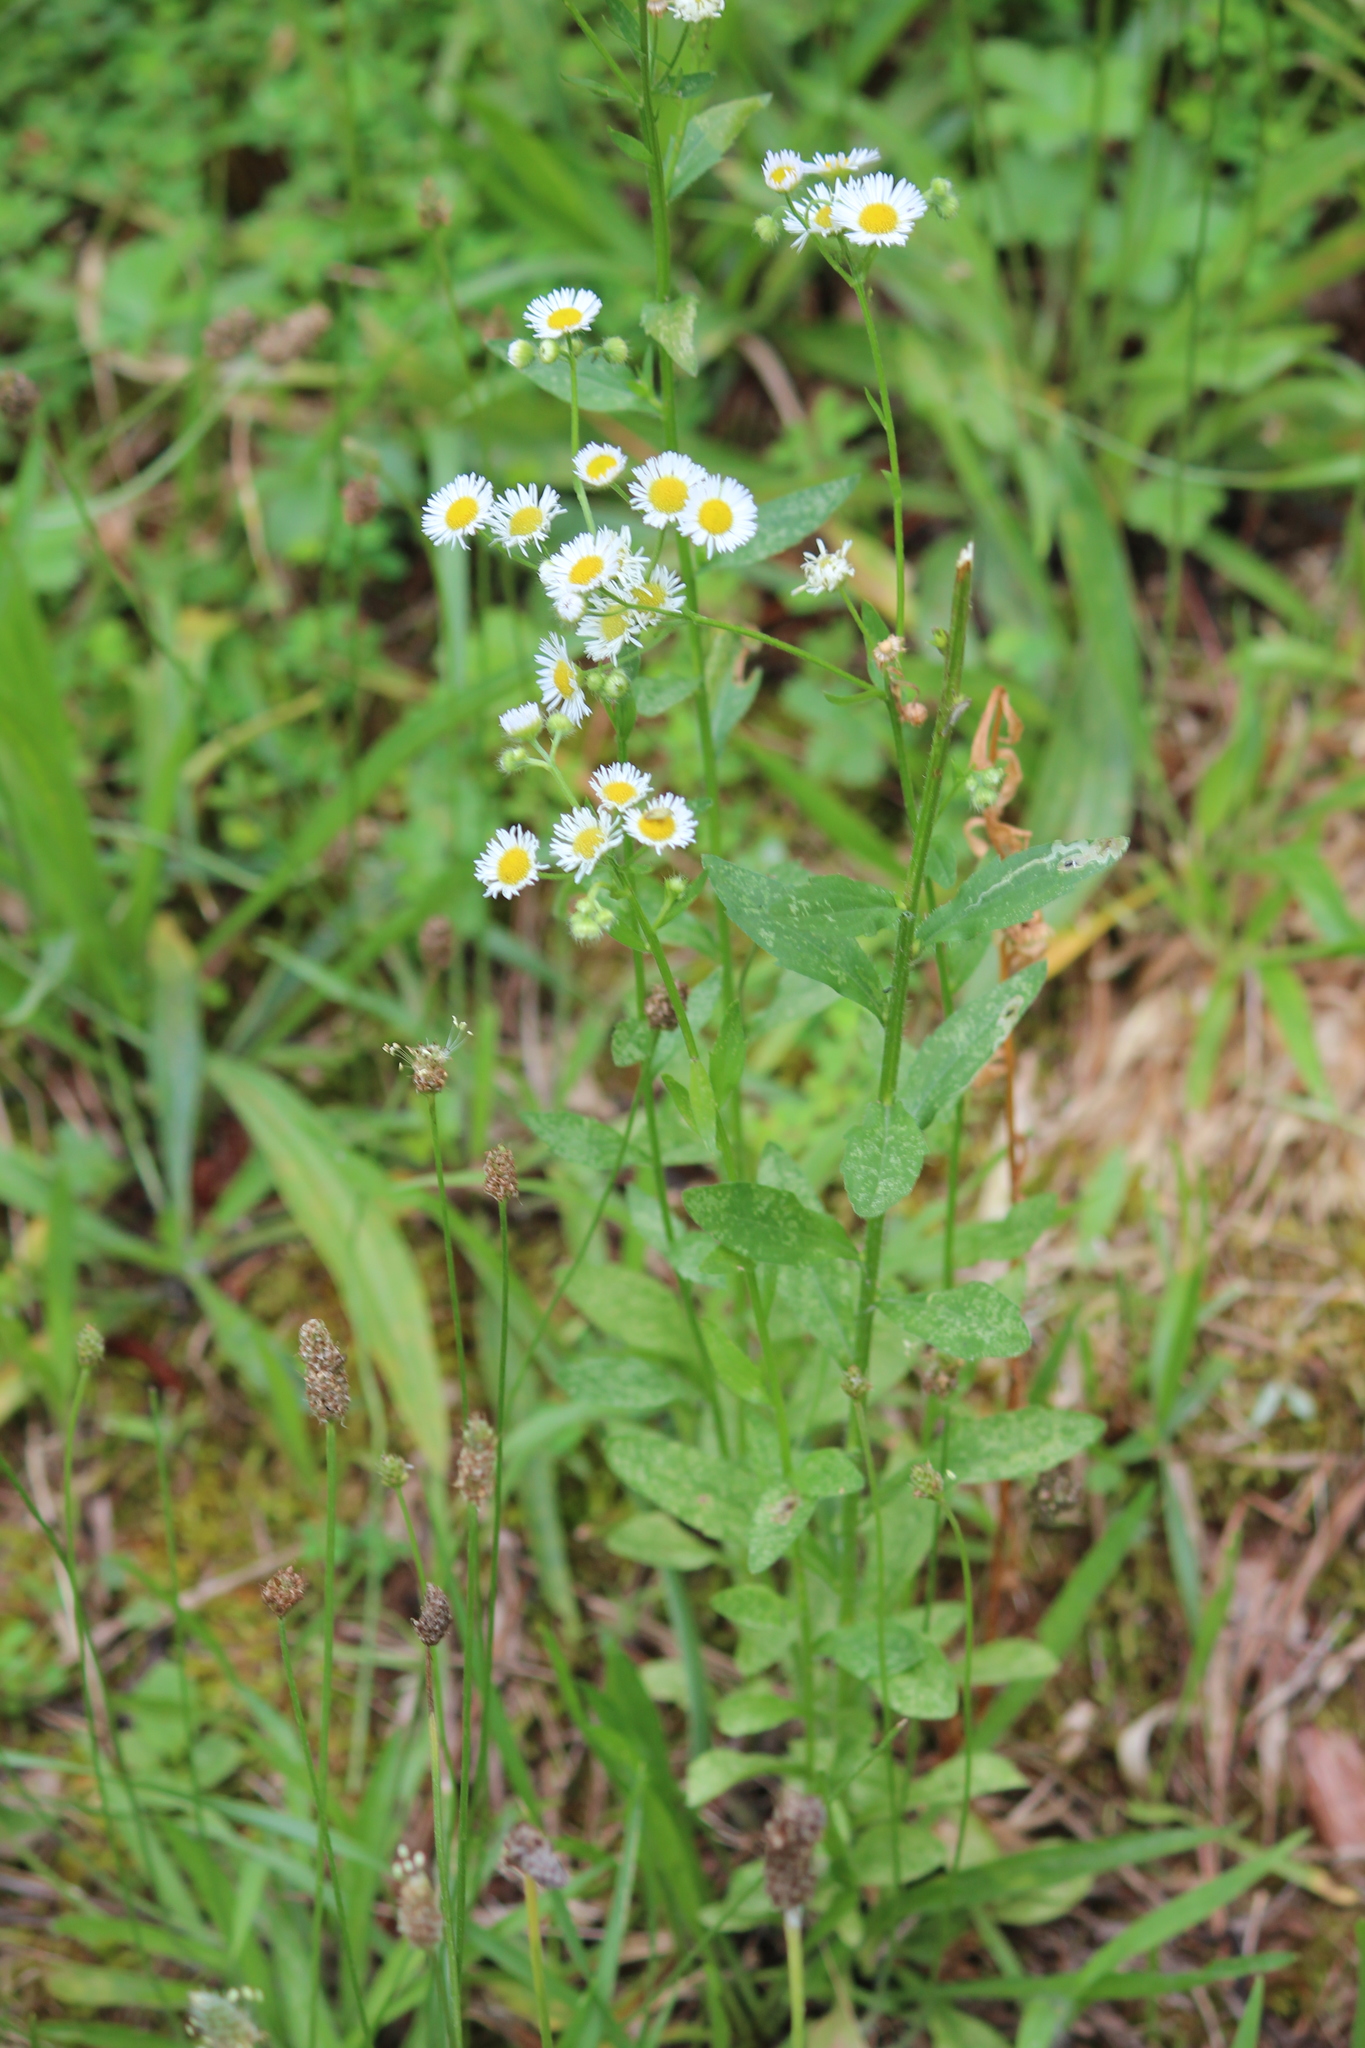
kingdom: Plantae
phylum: Tracheophyta
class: Magnoliopsida
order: Asterales
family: Asteraceae
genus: Erigeron
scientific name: Erigeron annuus
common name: Tall fleabane
